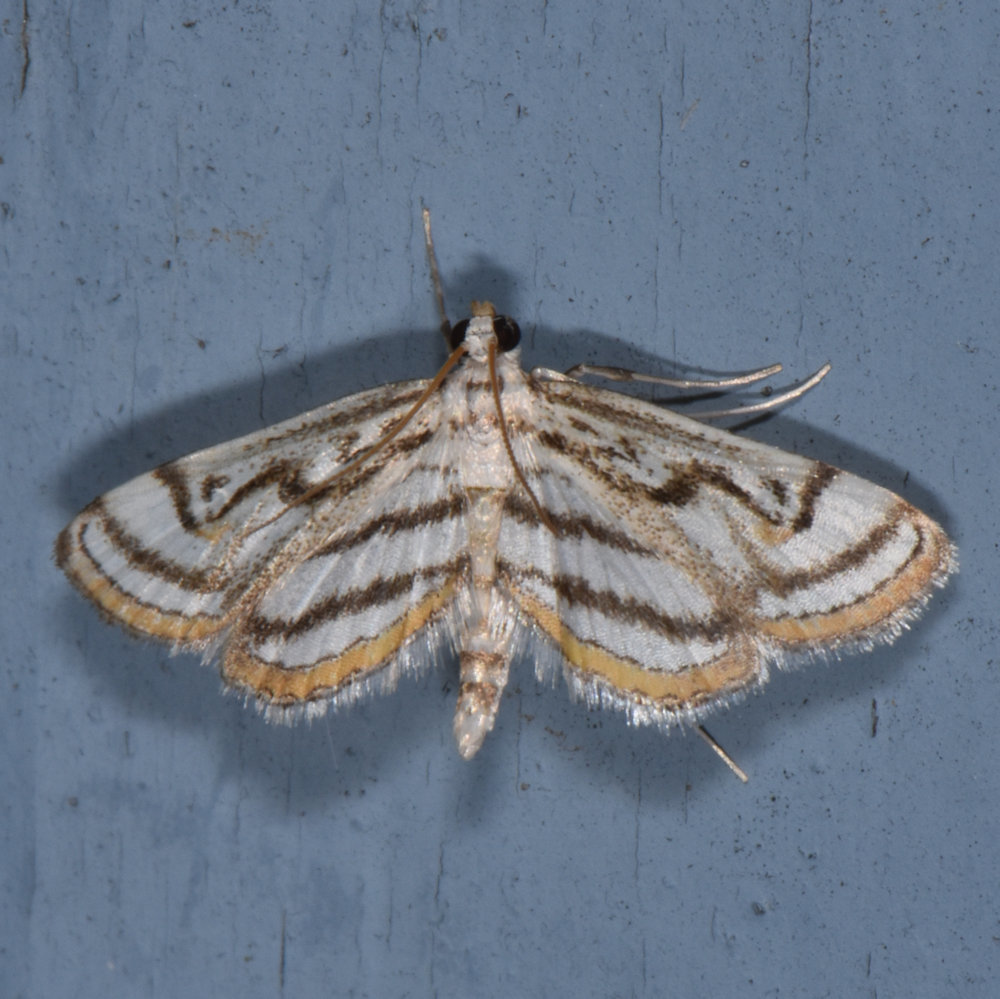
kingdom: Animalia
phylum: Arthropoda
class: Insecta
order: Lepidoptera
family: Crambidae
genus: Parapoynx
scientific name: Parapoynx badiusalis
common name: Chestnut-marked pondweed moth
